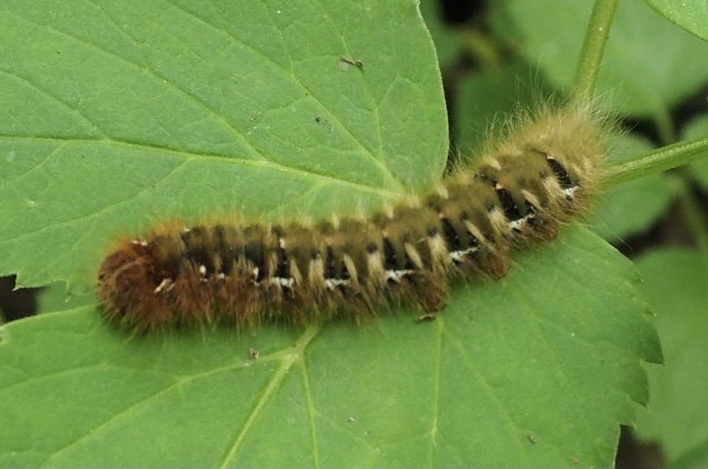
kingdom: Animalia
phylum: Arthropoda
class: Insecta
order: Lepidoptera
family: Lasiocampidae
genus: Lasiocampa
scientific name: Lasiocampa quercus
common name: Oak eggar
